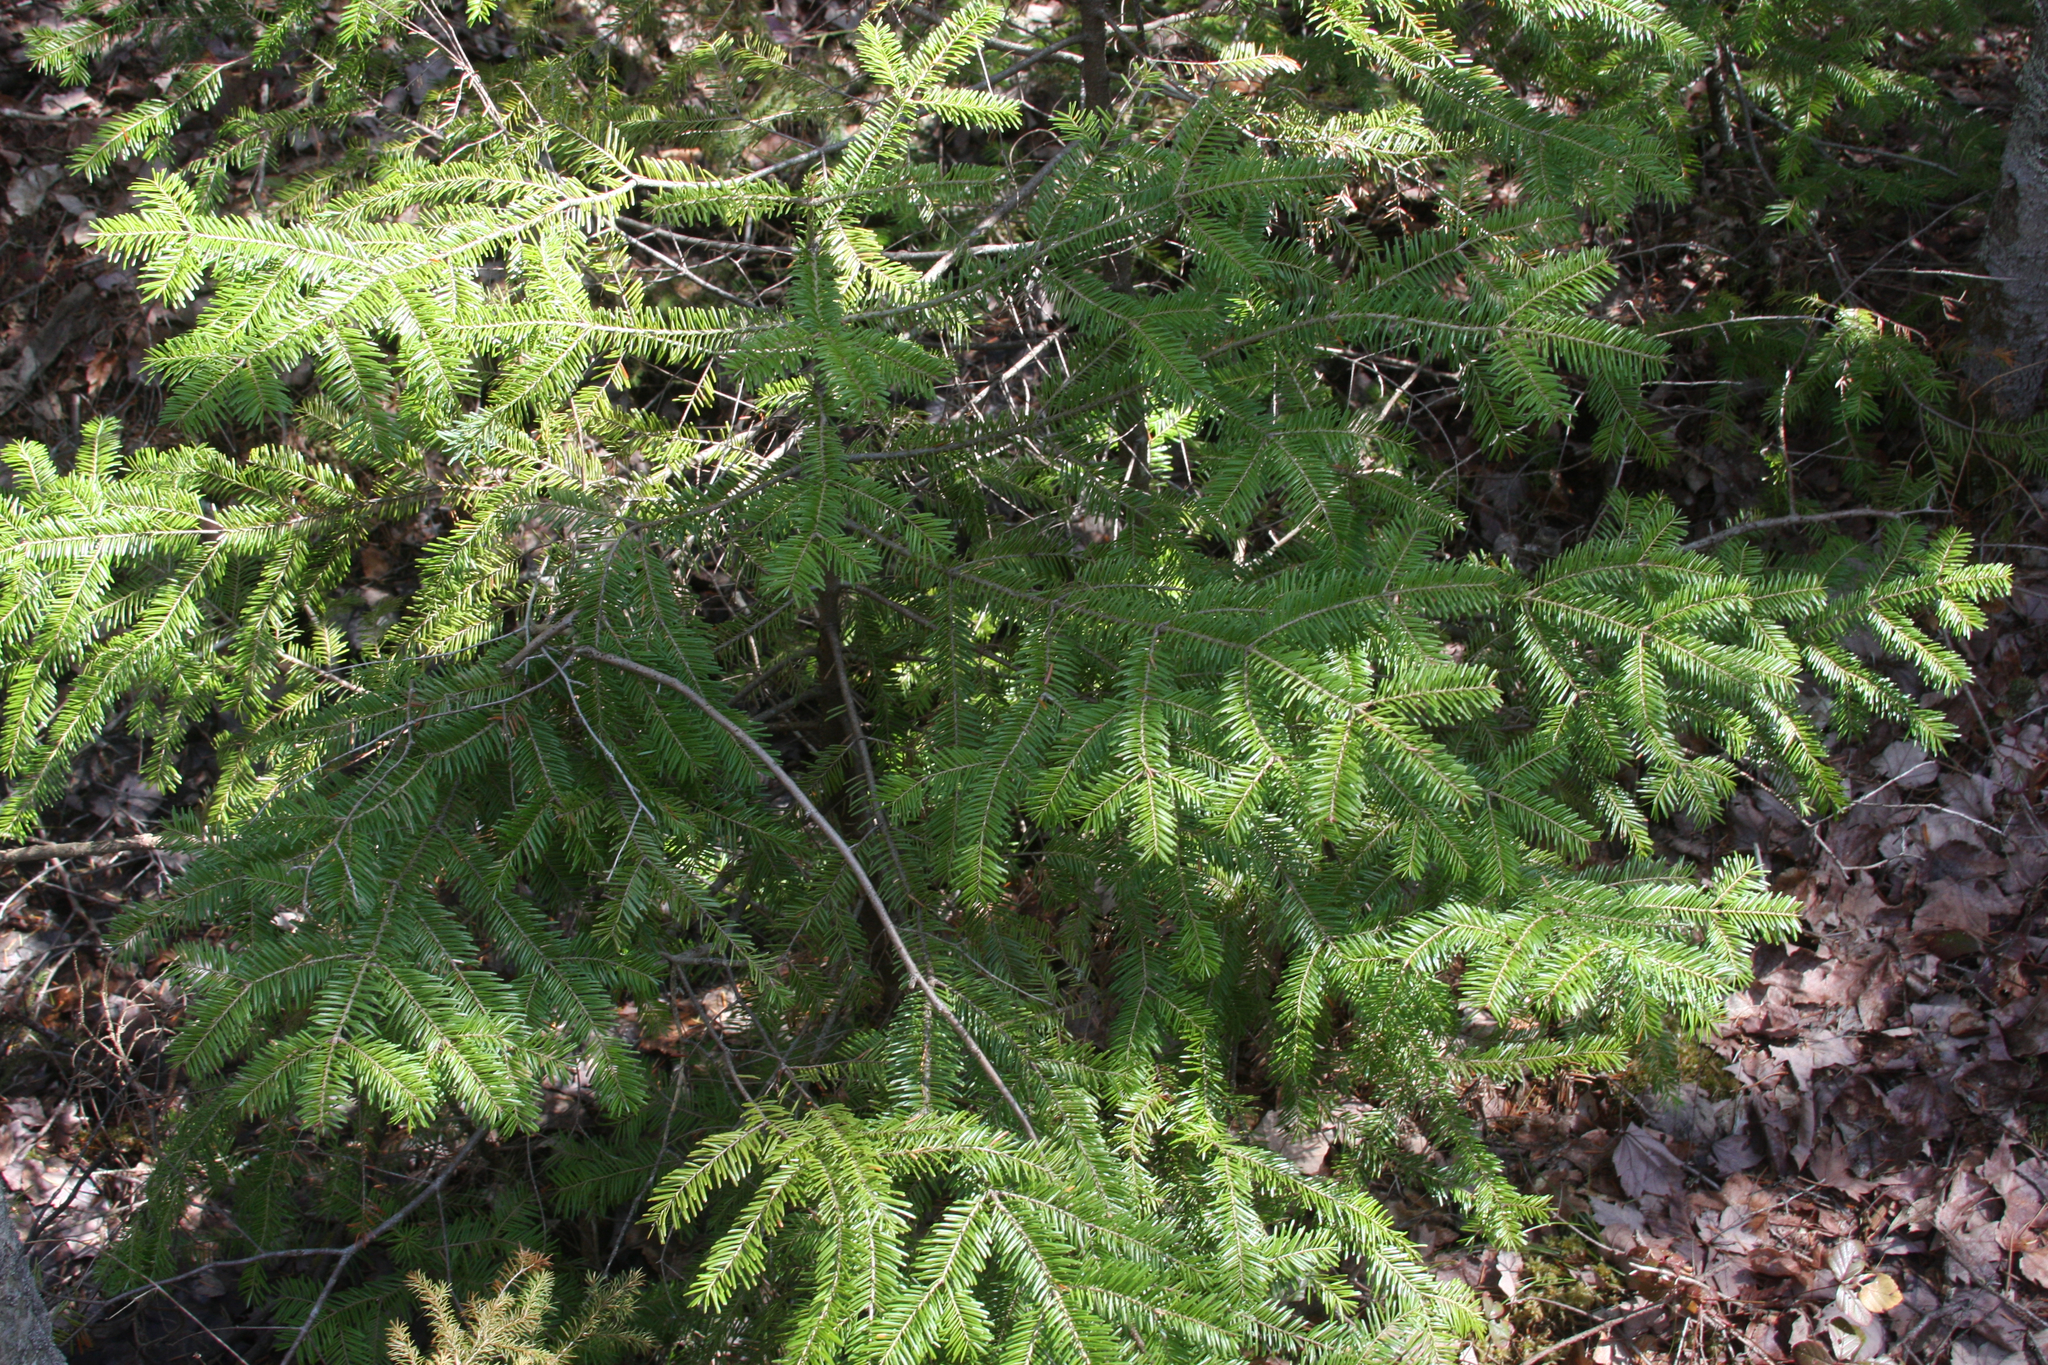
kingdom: Plantae
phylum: Tracheophyta
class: Pinopsida
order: Pinales
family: Pinaceae
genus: Abies
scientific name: Abies balsamea
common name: Balsam fir
